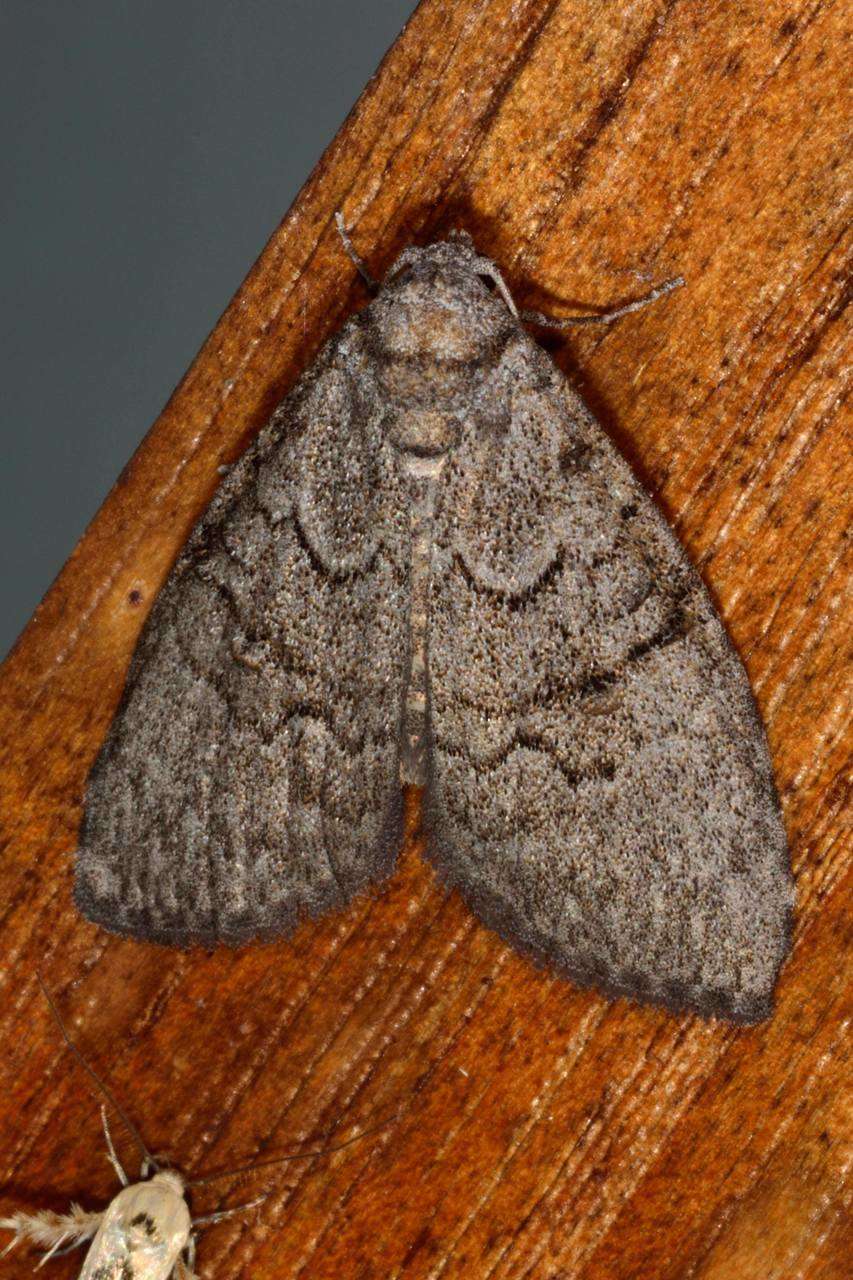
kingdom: Animalia
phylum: Arthropoda
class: Insecta
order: Lepidoptera
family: Nolidae
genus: Uraba
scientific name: Uraba lugens
